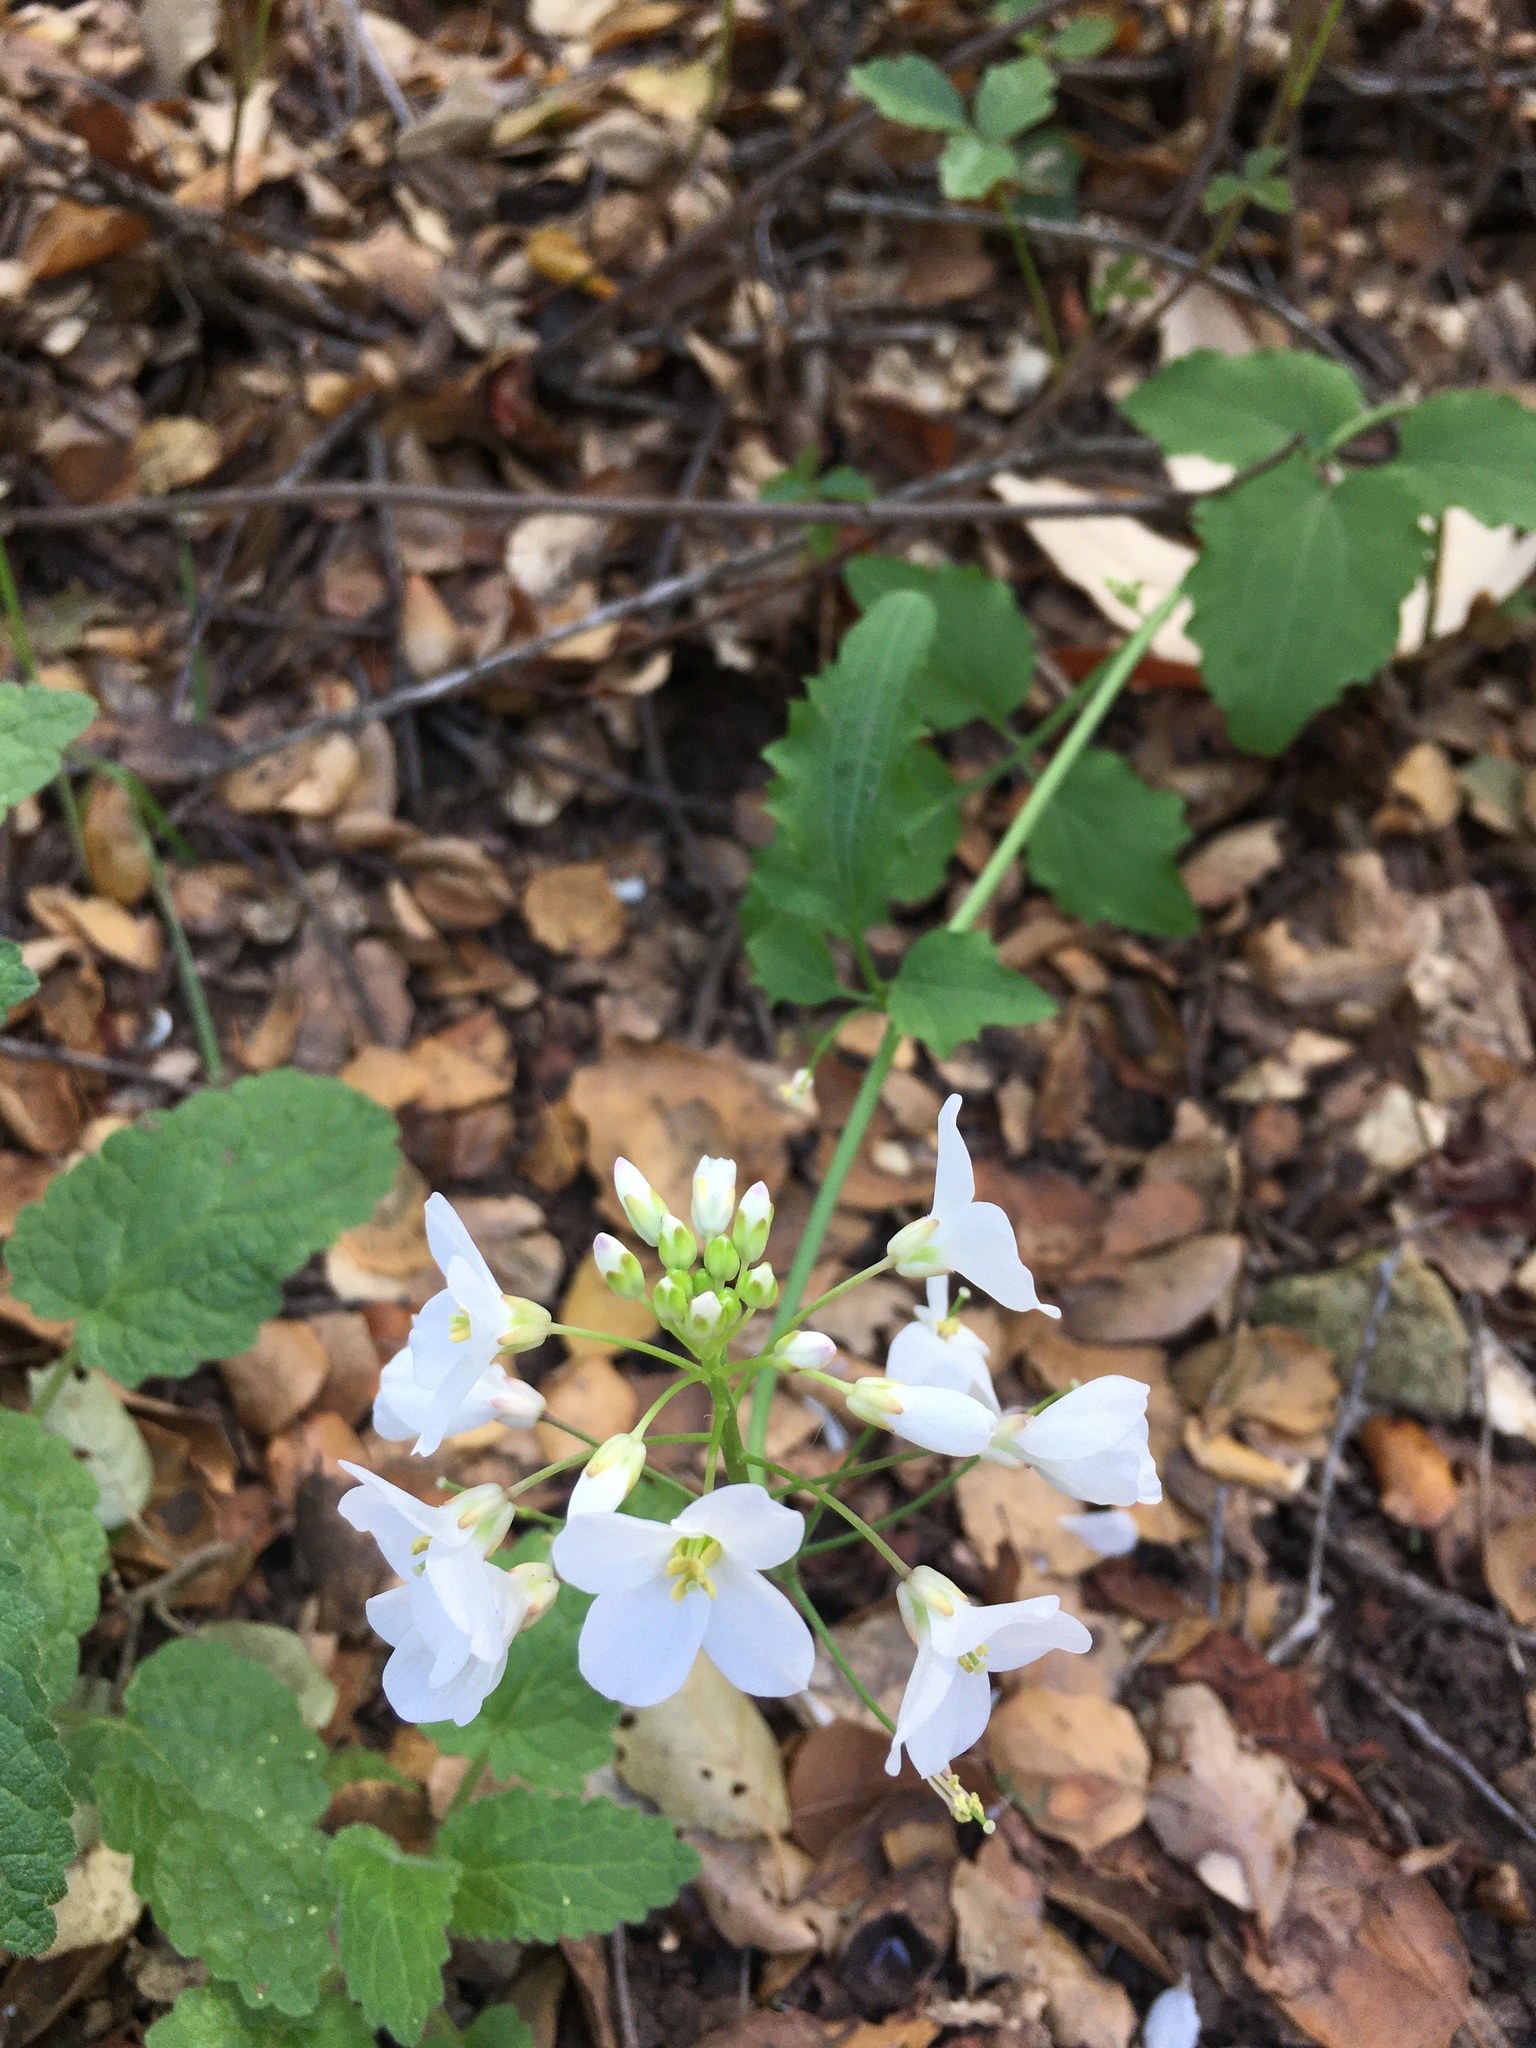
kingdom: Plantae
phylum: Tracheophyta
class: Magnoliopsida
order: Brassicales
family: Brassicaceae
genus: Cardamine
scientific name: Cardamine californica
